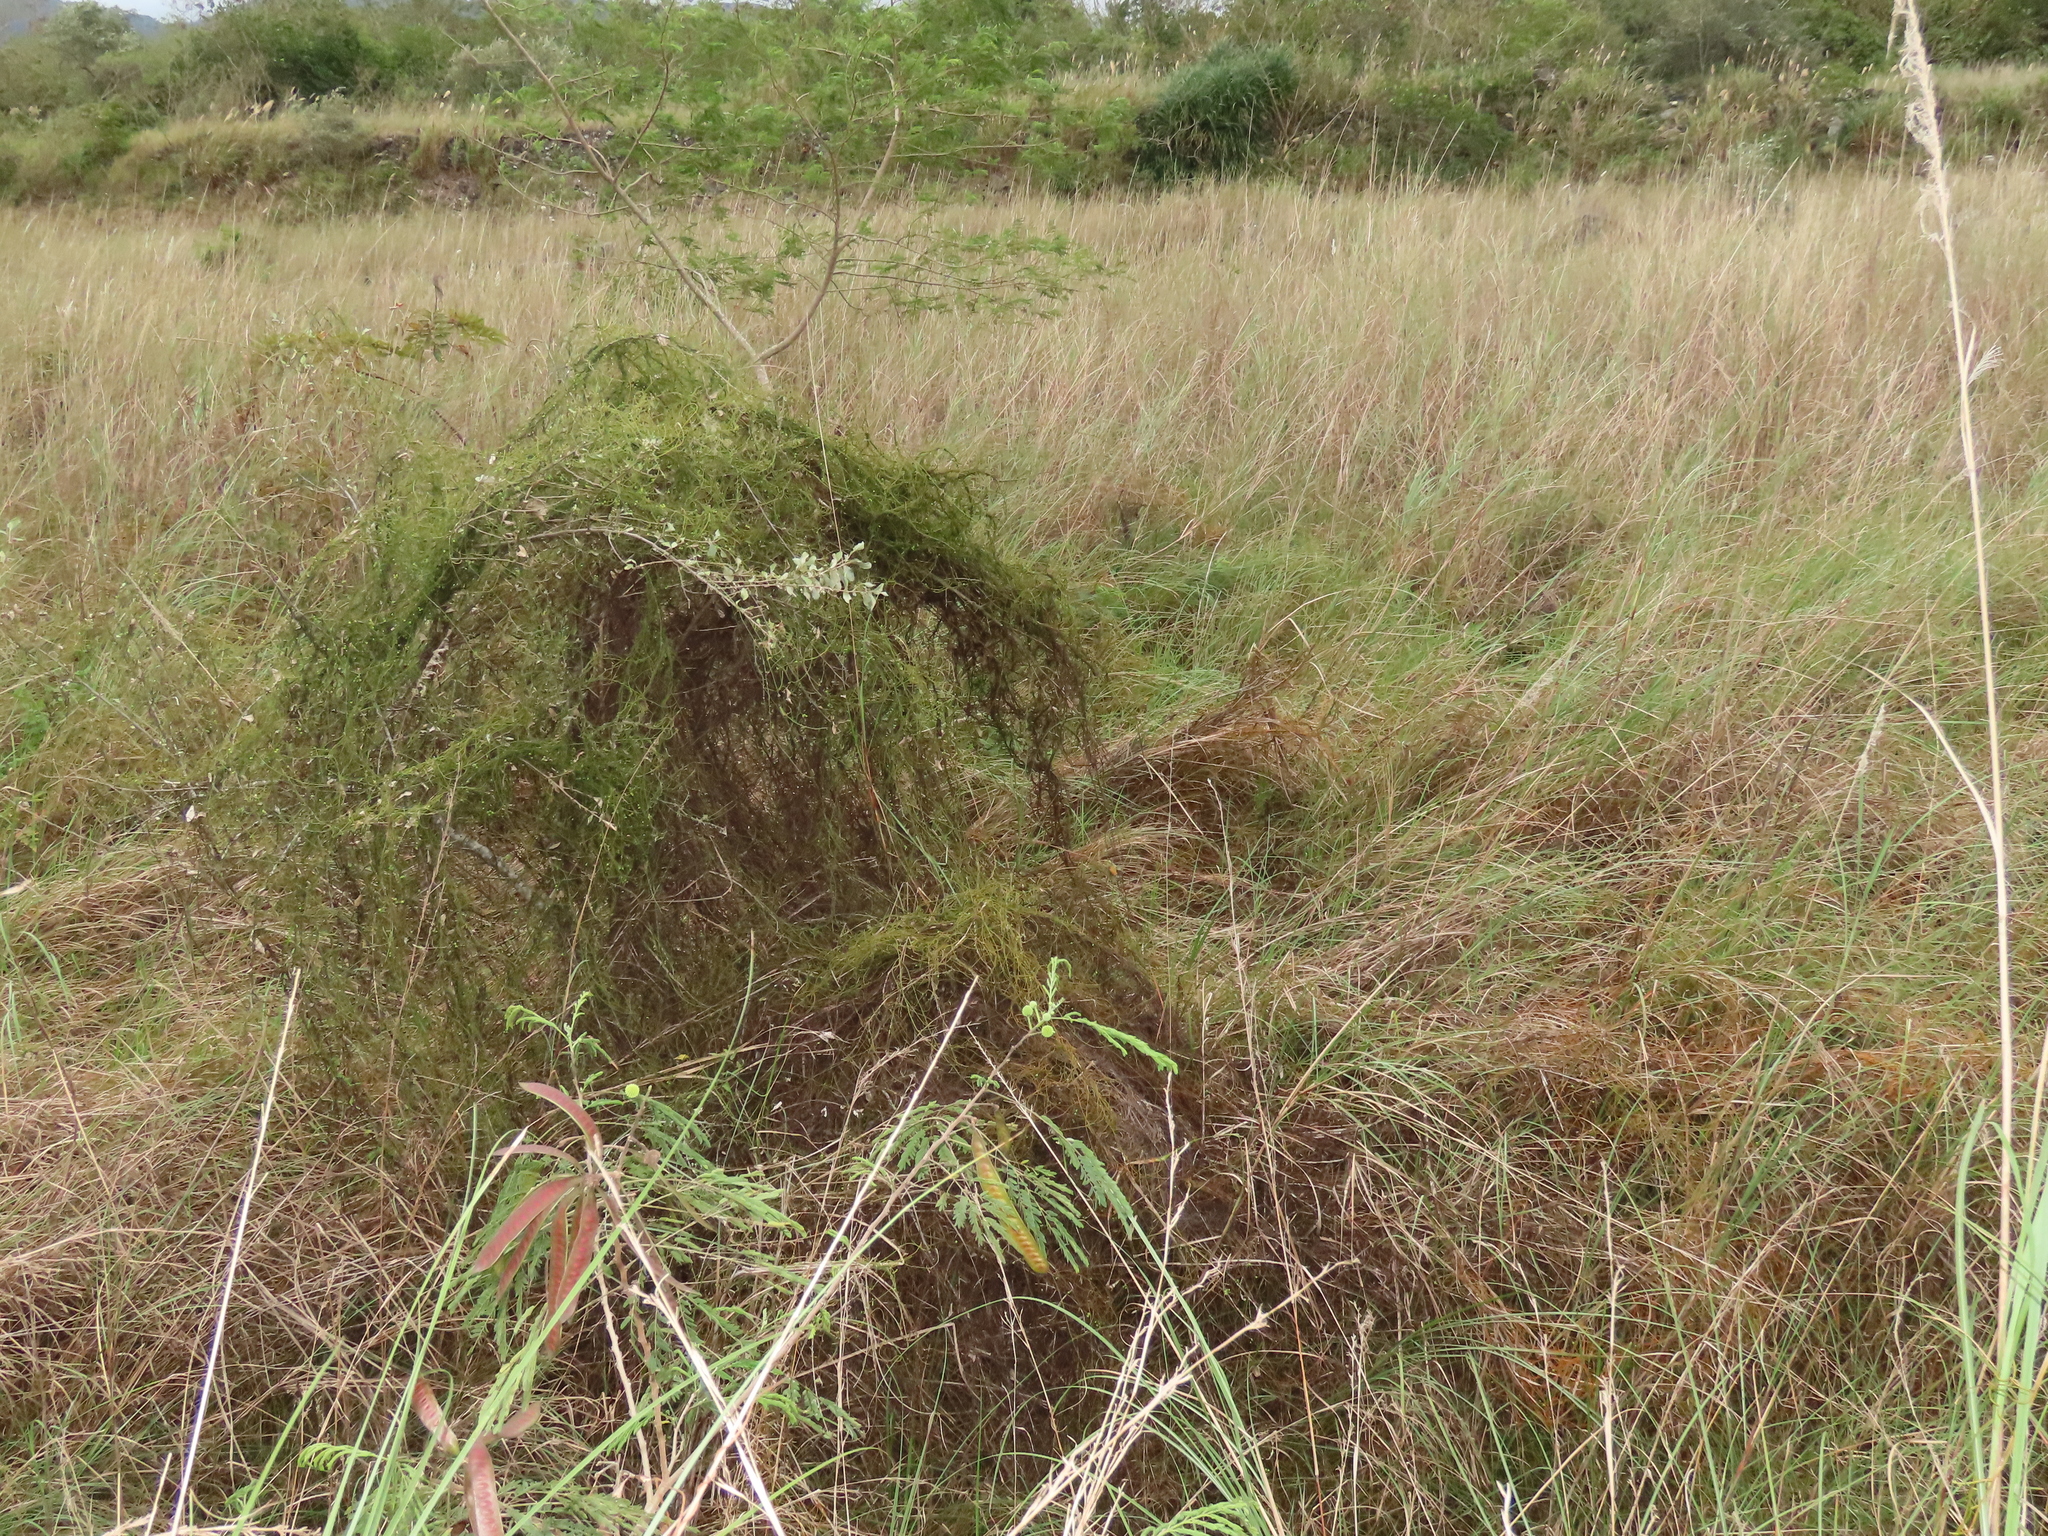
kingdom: Plantae
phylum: Tracheophyta
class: Magnoliopsida
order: Laurales
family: Lauraceae
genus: Cassytha
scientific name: Cassytha filiformis
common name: Dodder-laurel
